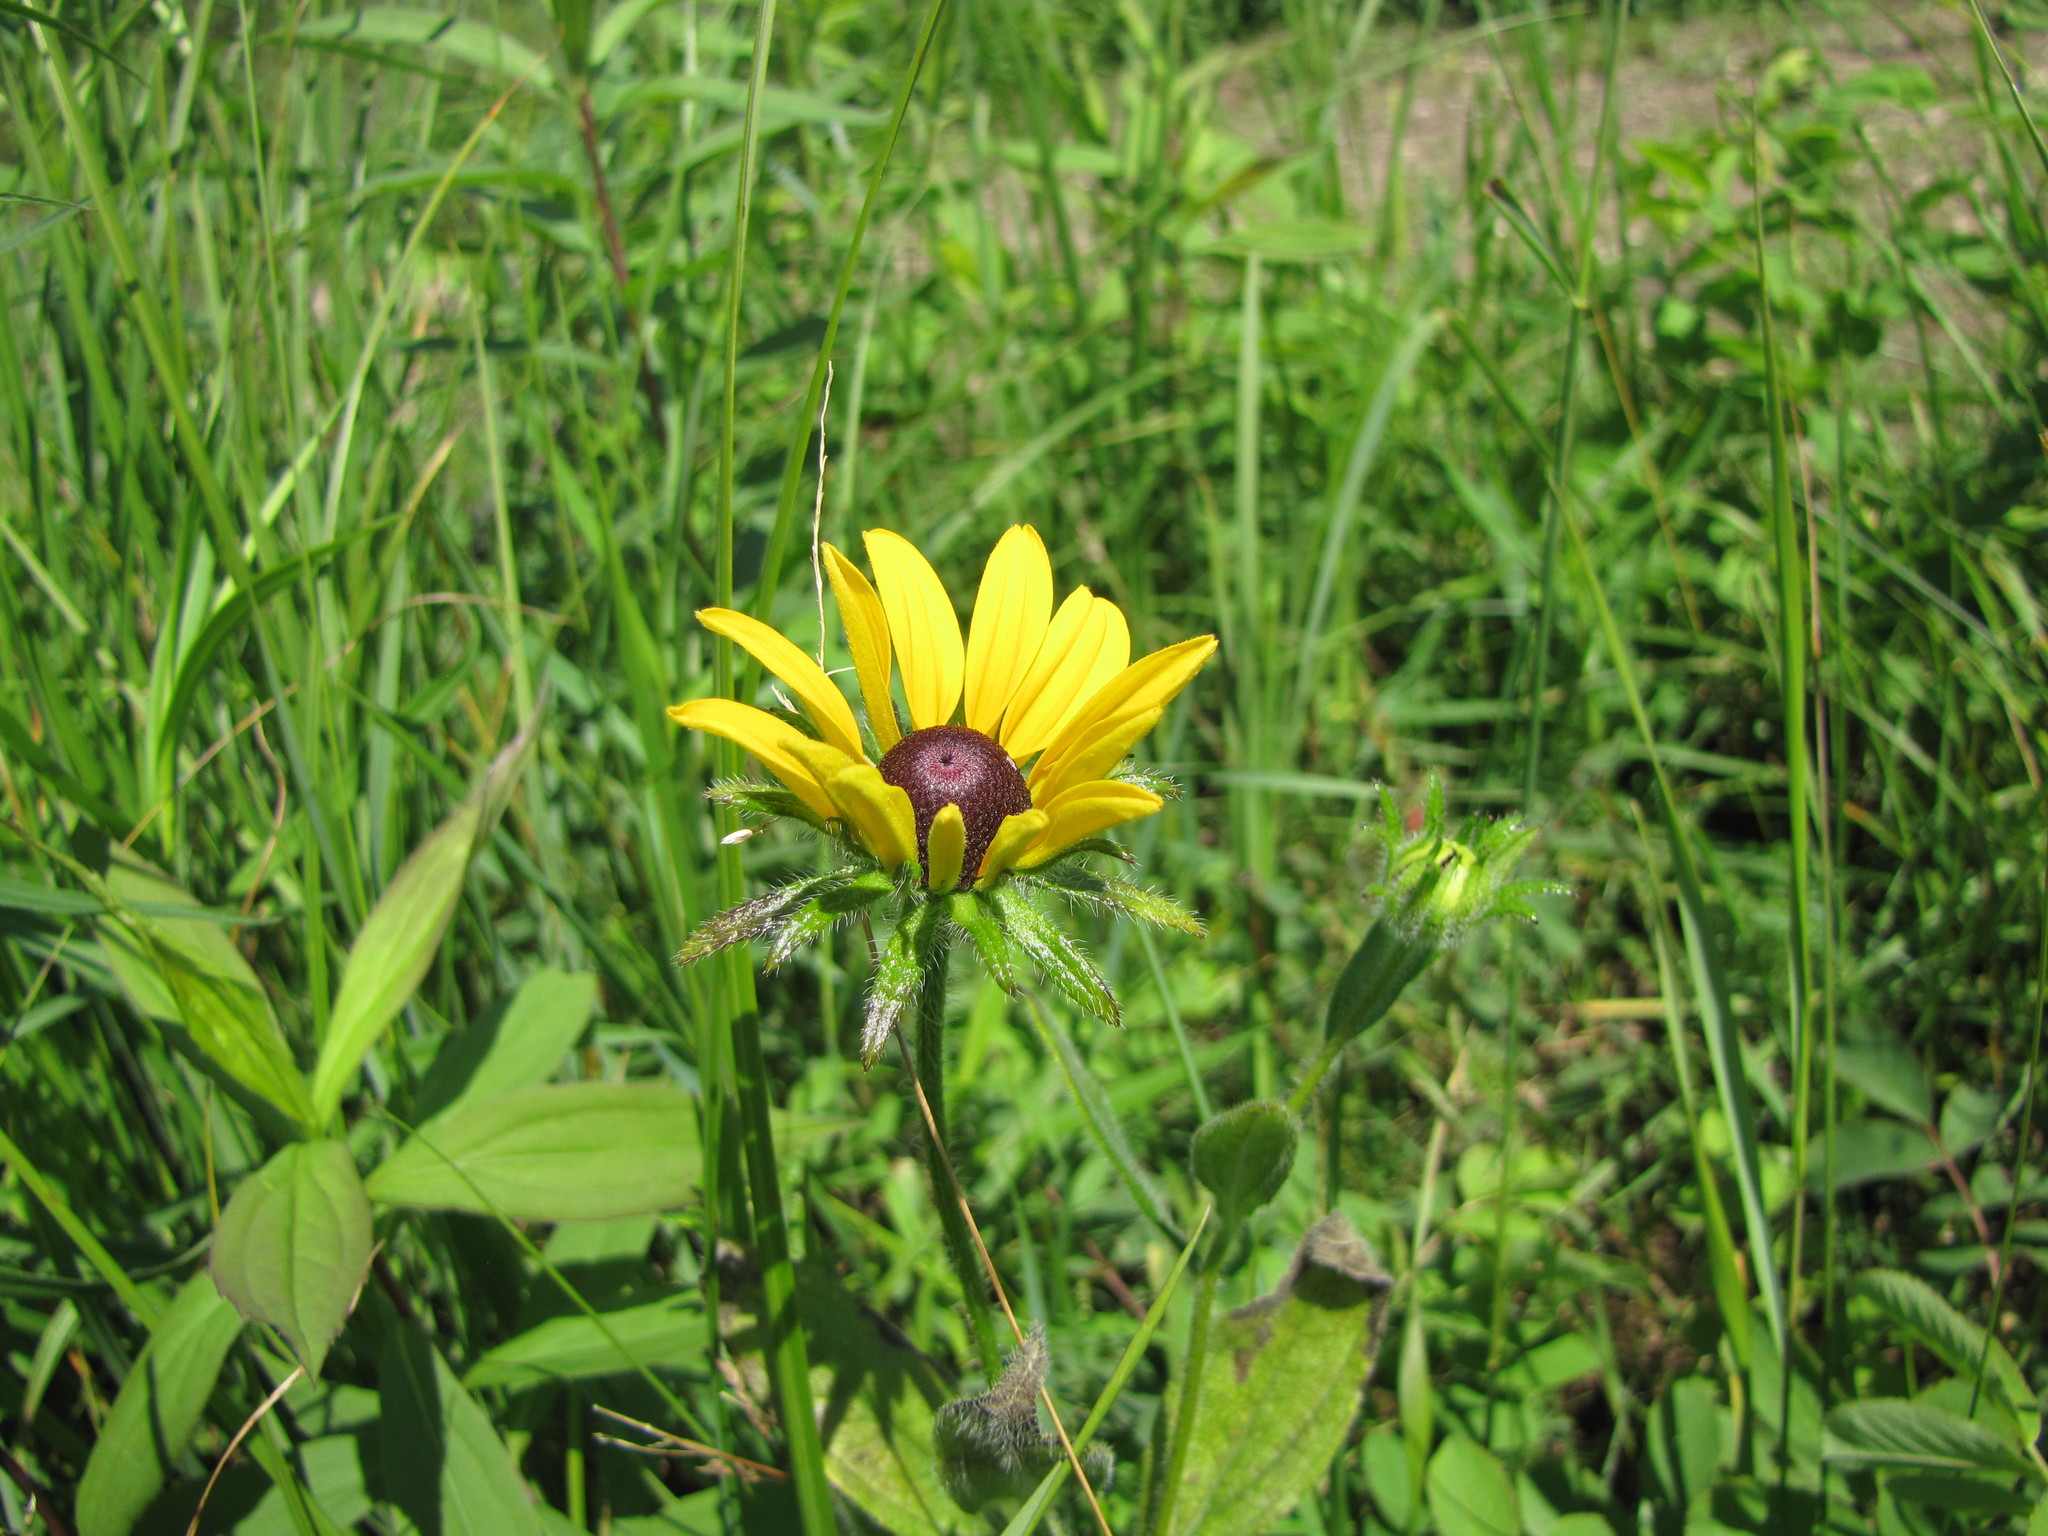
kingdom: Plantae
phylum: Tracheophyta
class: Magnoliopsida
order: Asterales
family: Asteraceae
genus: Rudbeckia
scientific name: Rudbeckia hirta
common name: Black-eyed-susan
